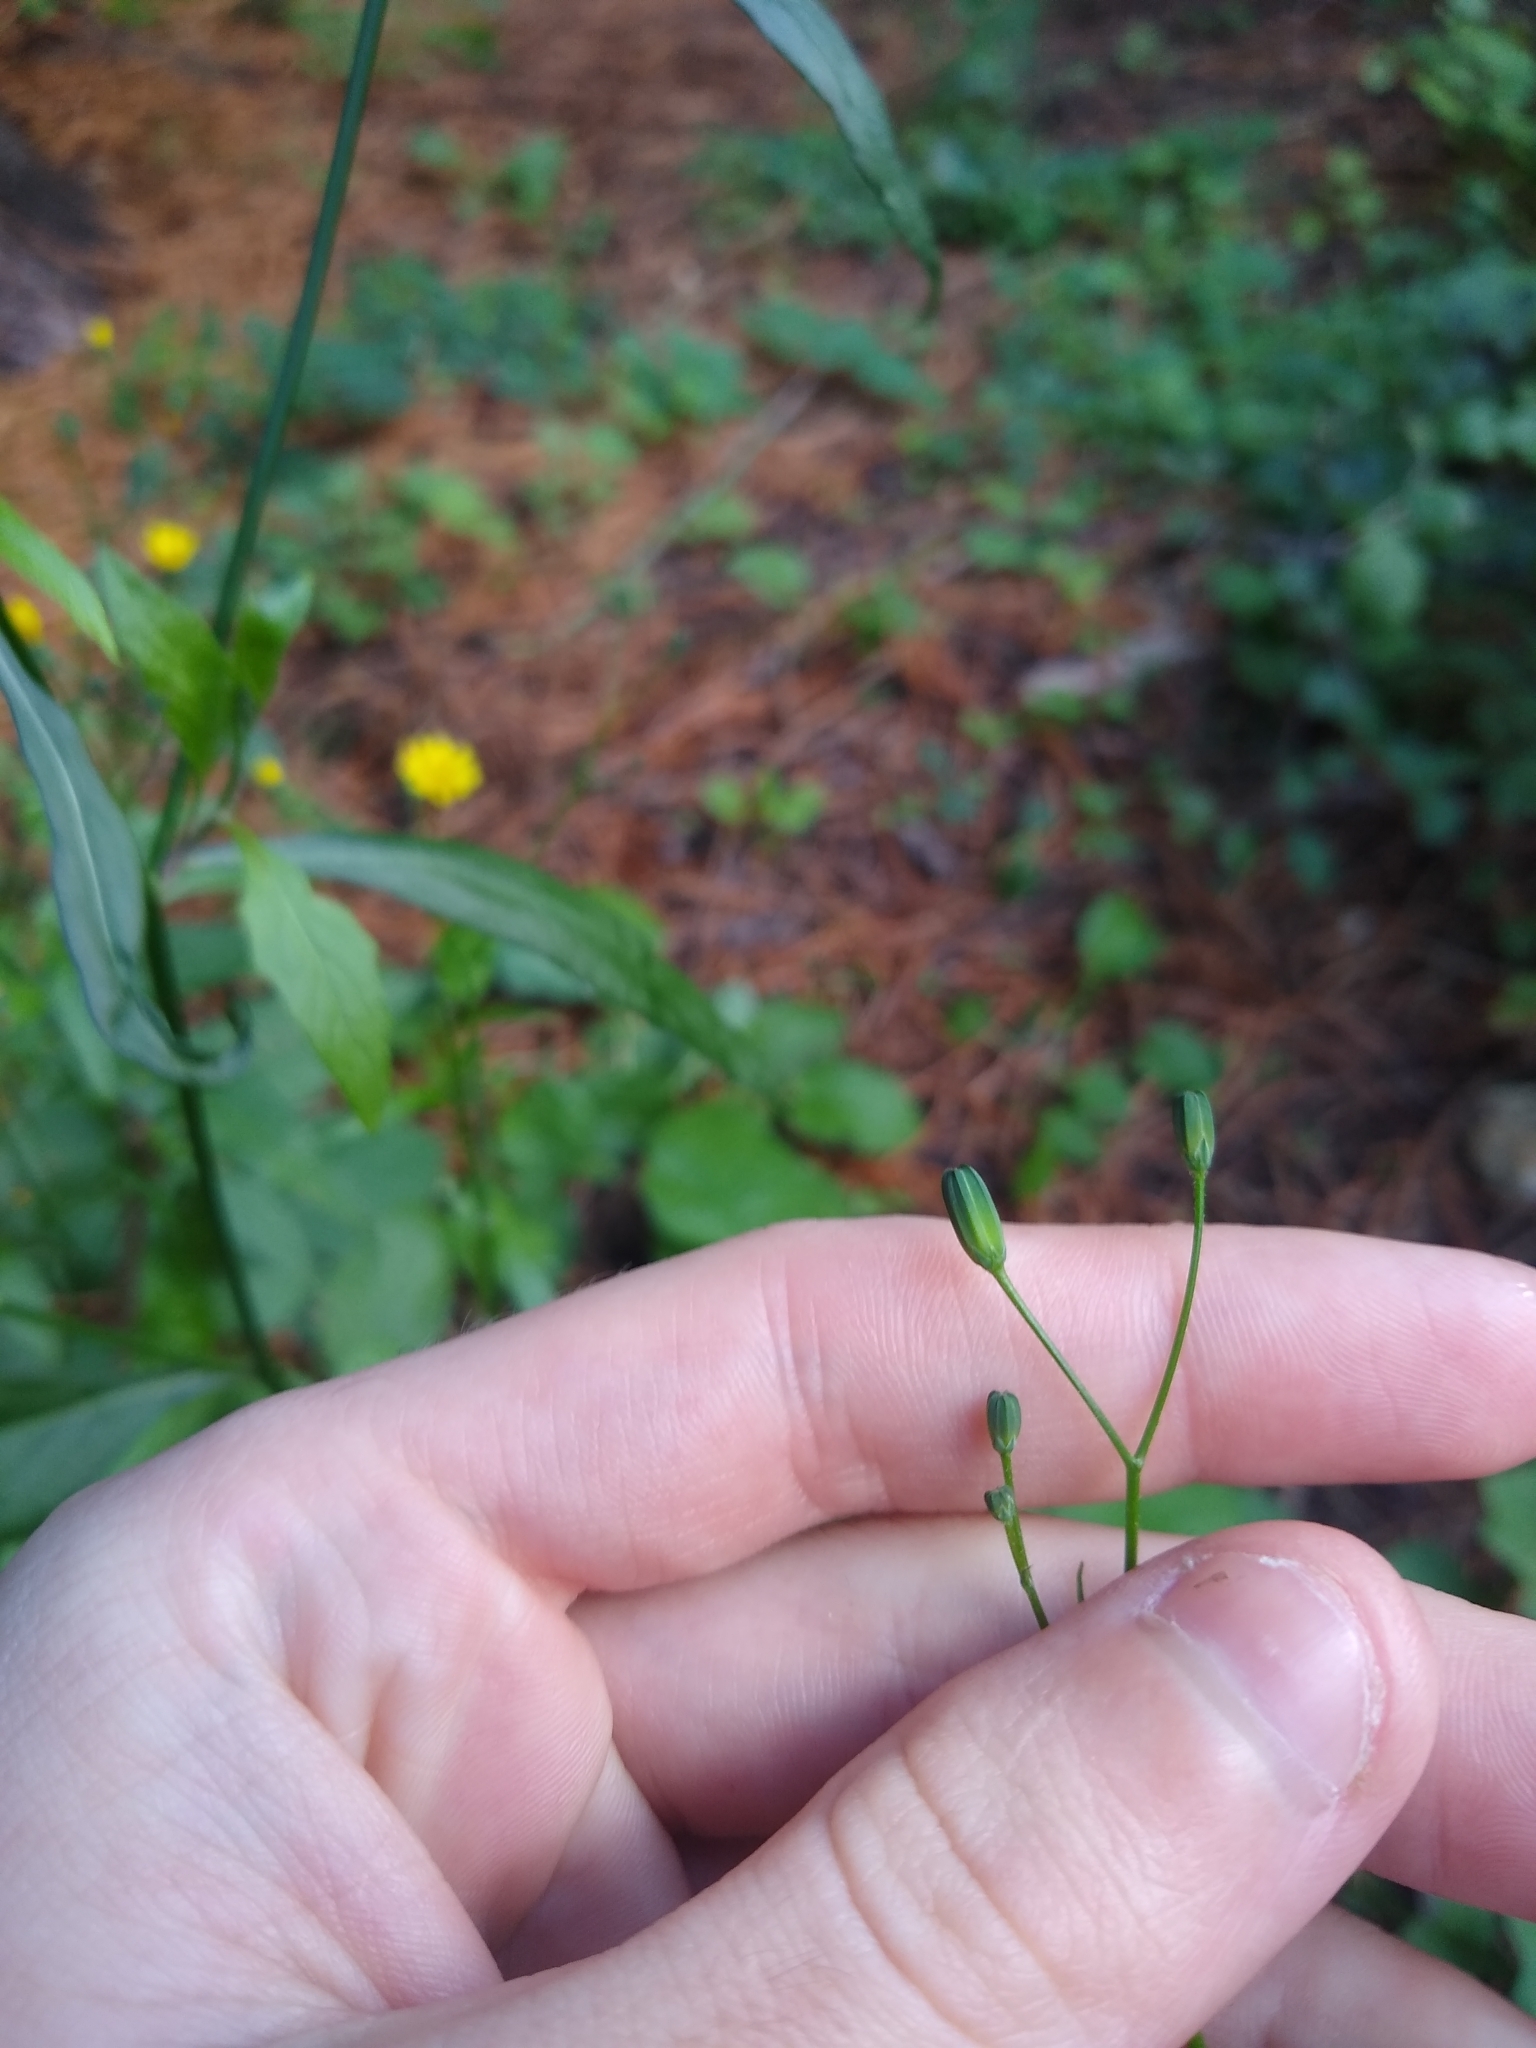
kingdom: Plantae
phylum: Tracheophyta
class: Magnoliopsida
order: Asterales
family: Asteraceae
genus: Lapsana
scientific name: Lapsana communis
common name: Nipplewort
